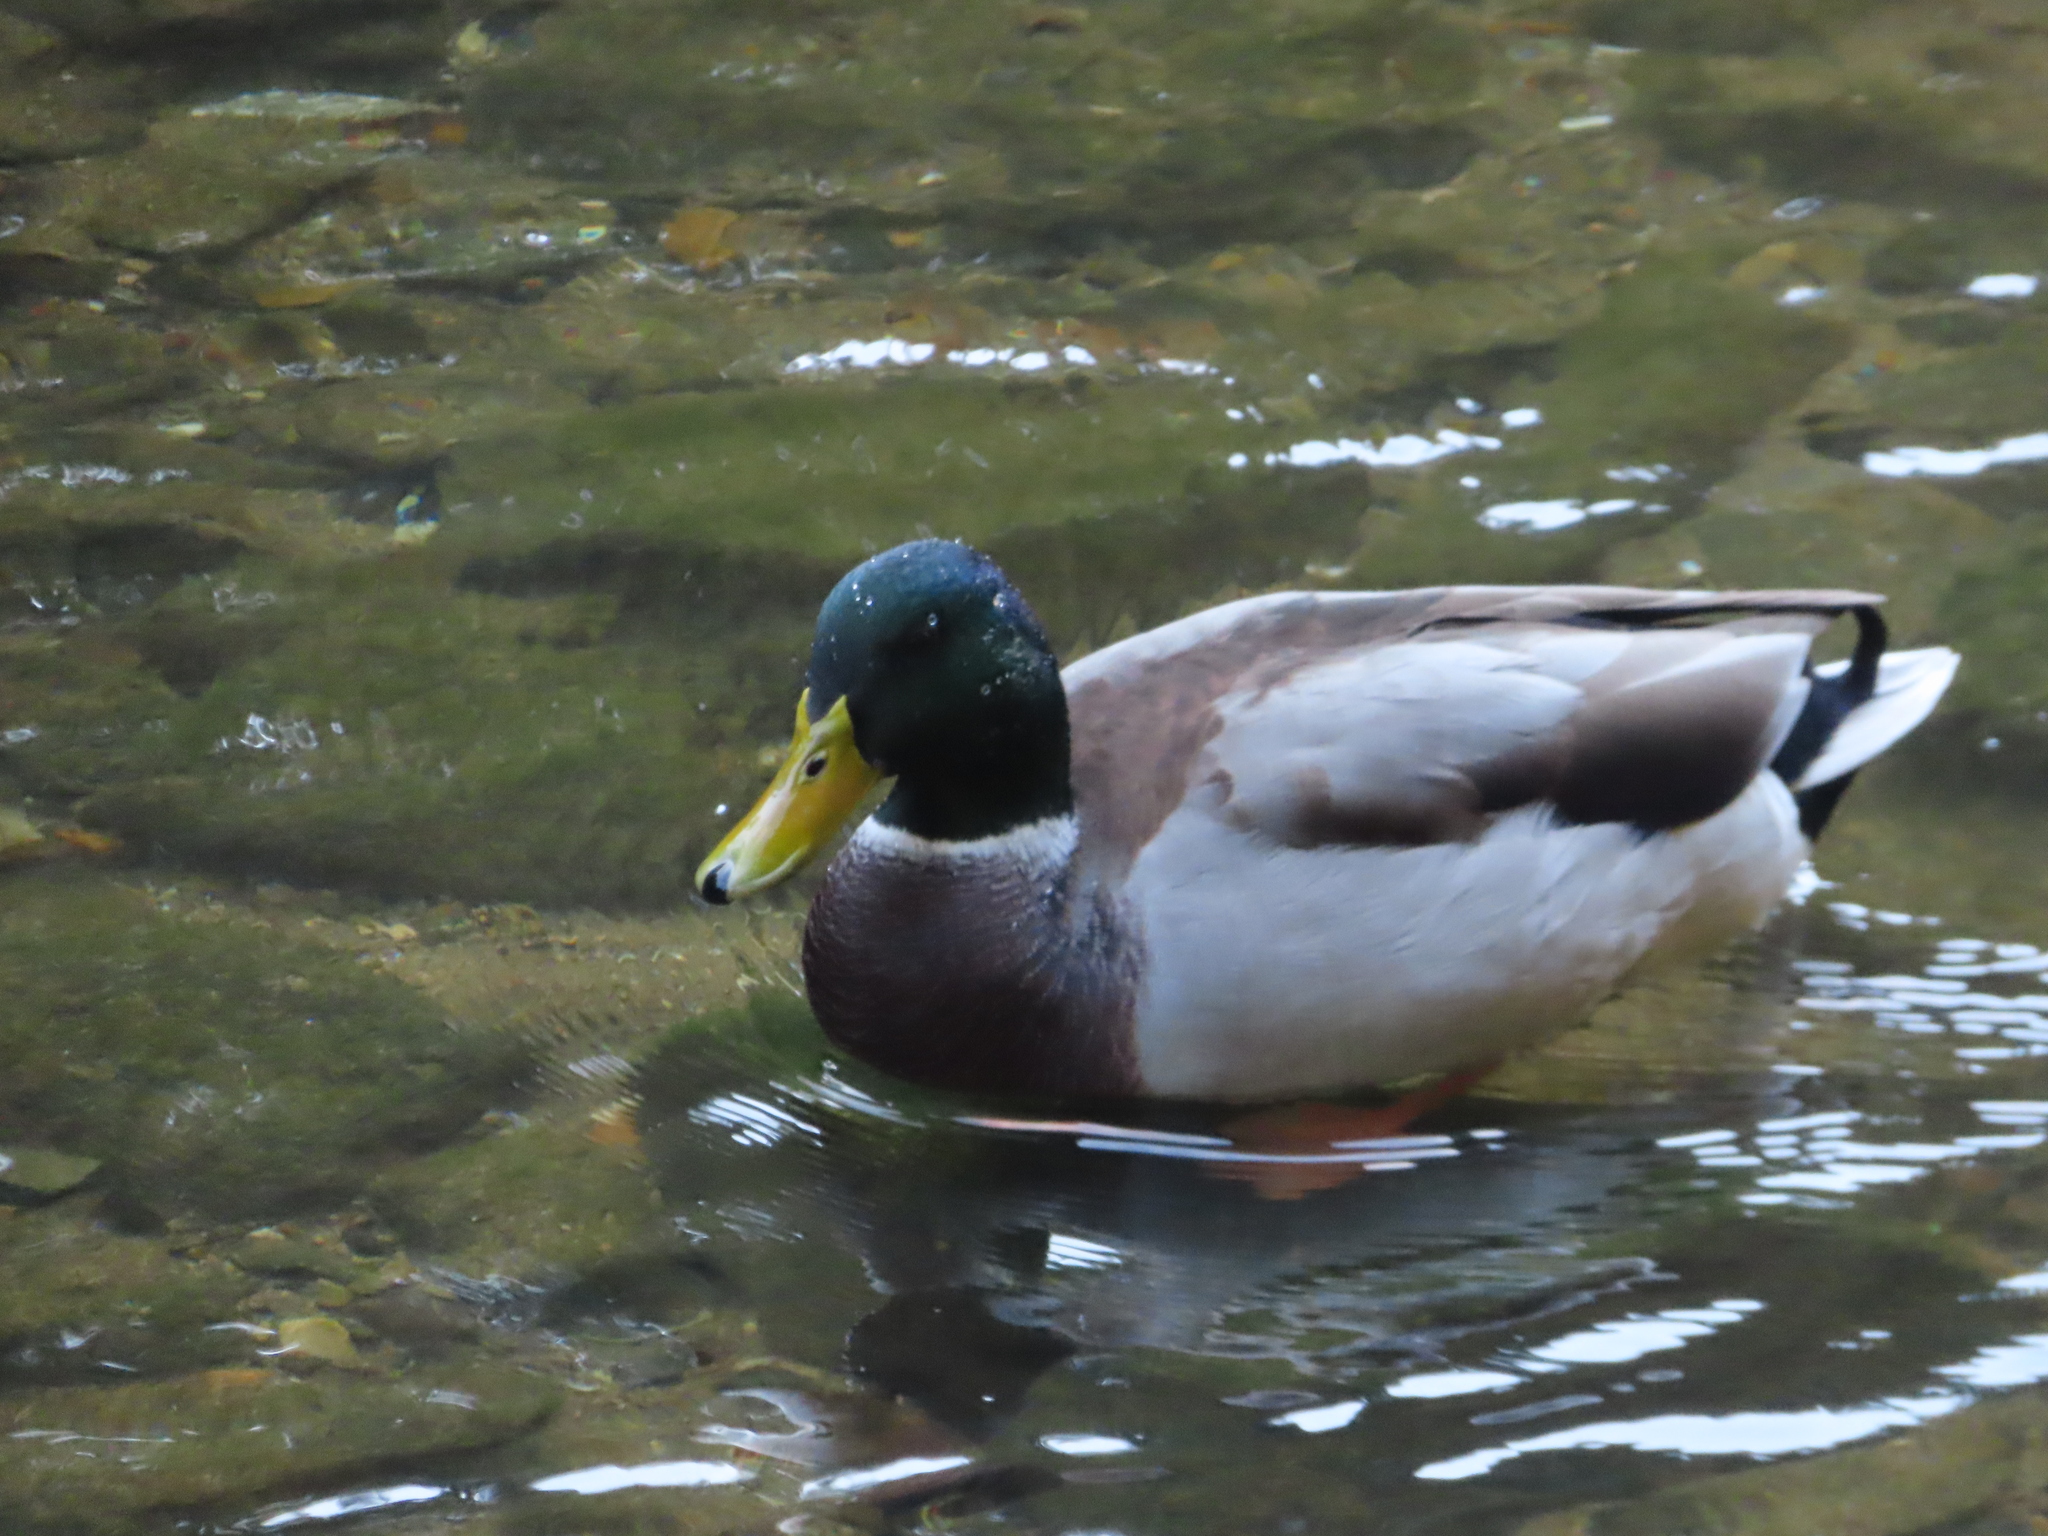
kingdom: Animalia
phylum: Chordata
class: Aves
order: Anseriformes
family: Anatidae
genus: Anas
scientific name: Anas platyrhynchos
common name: Mallard
